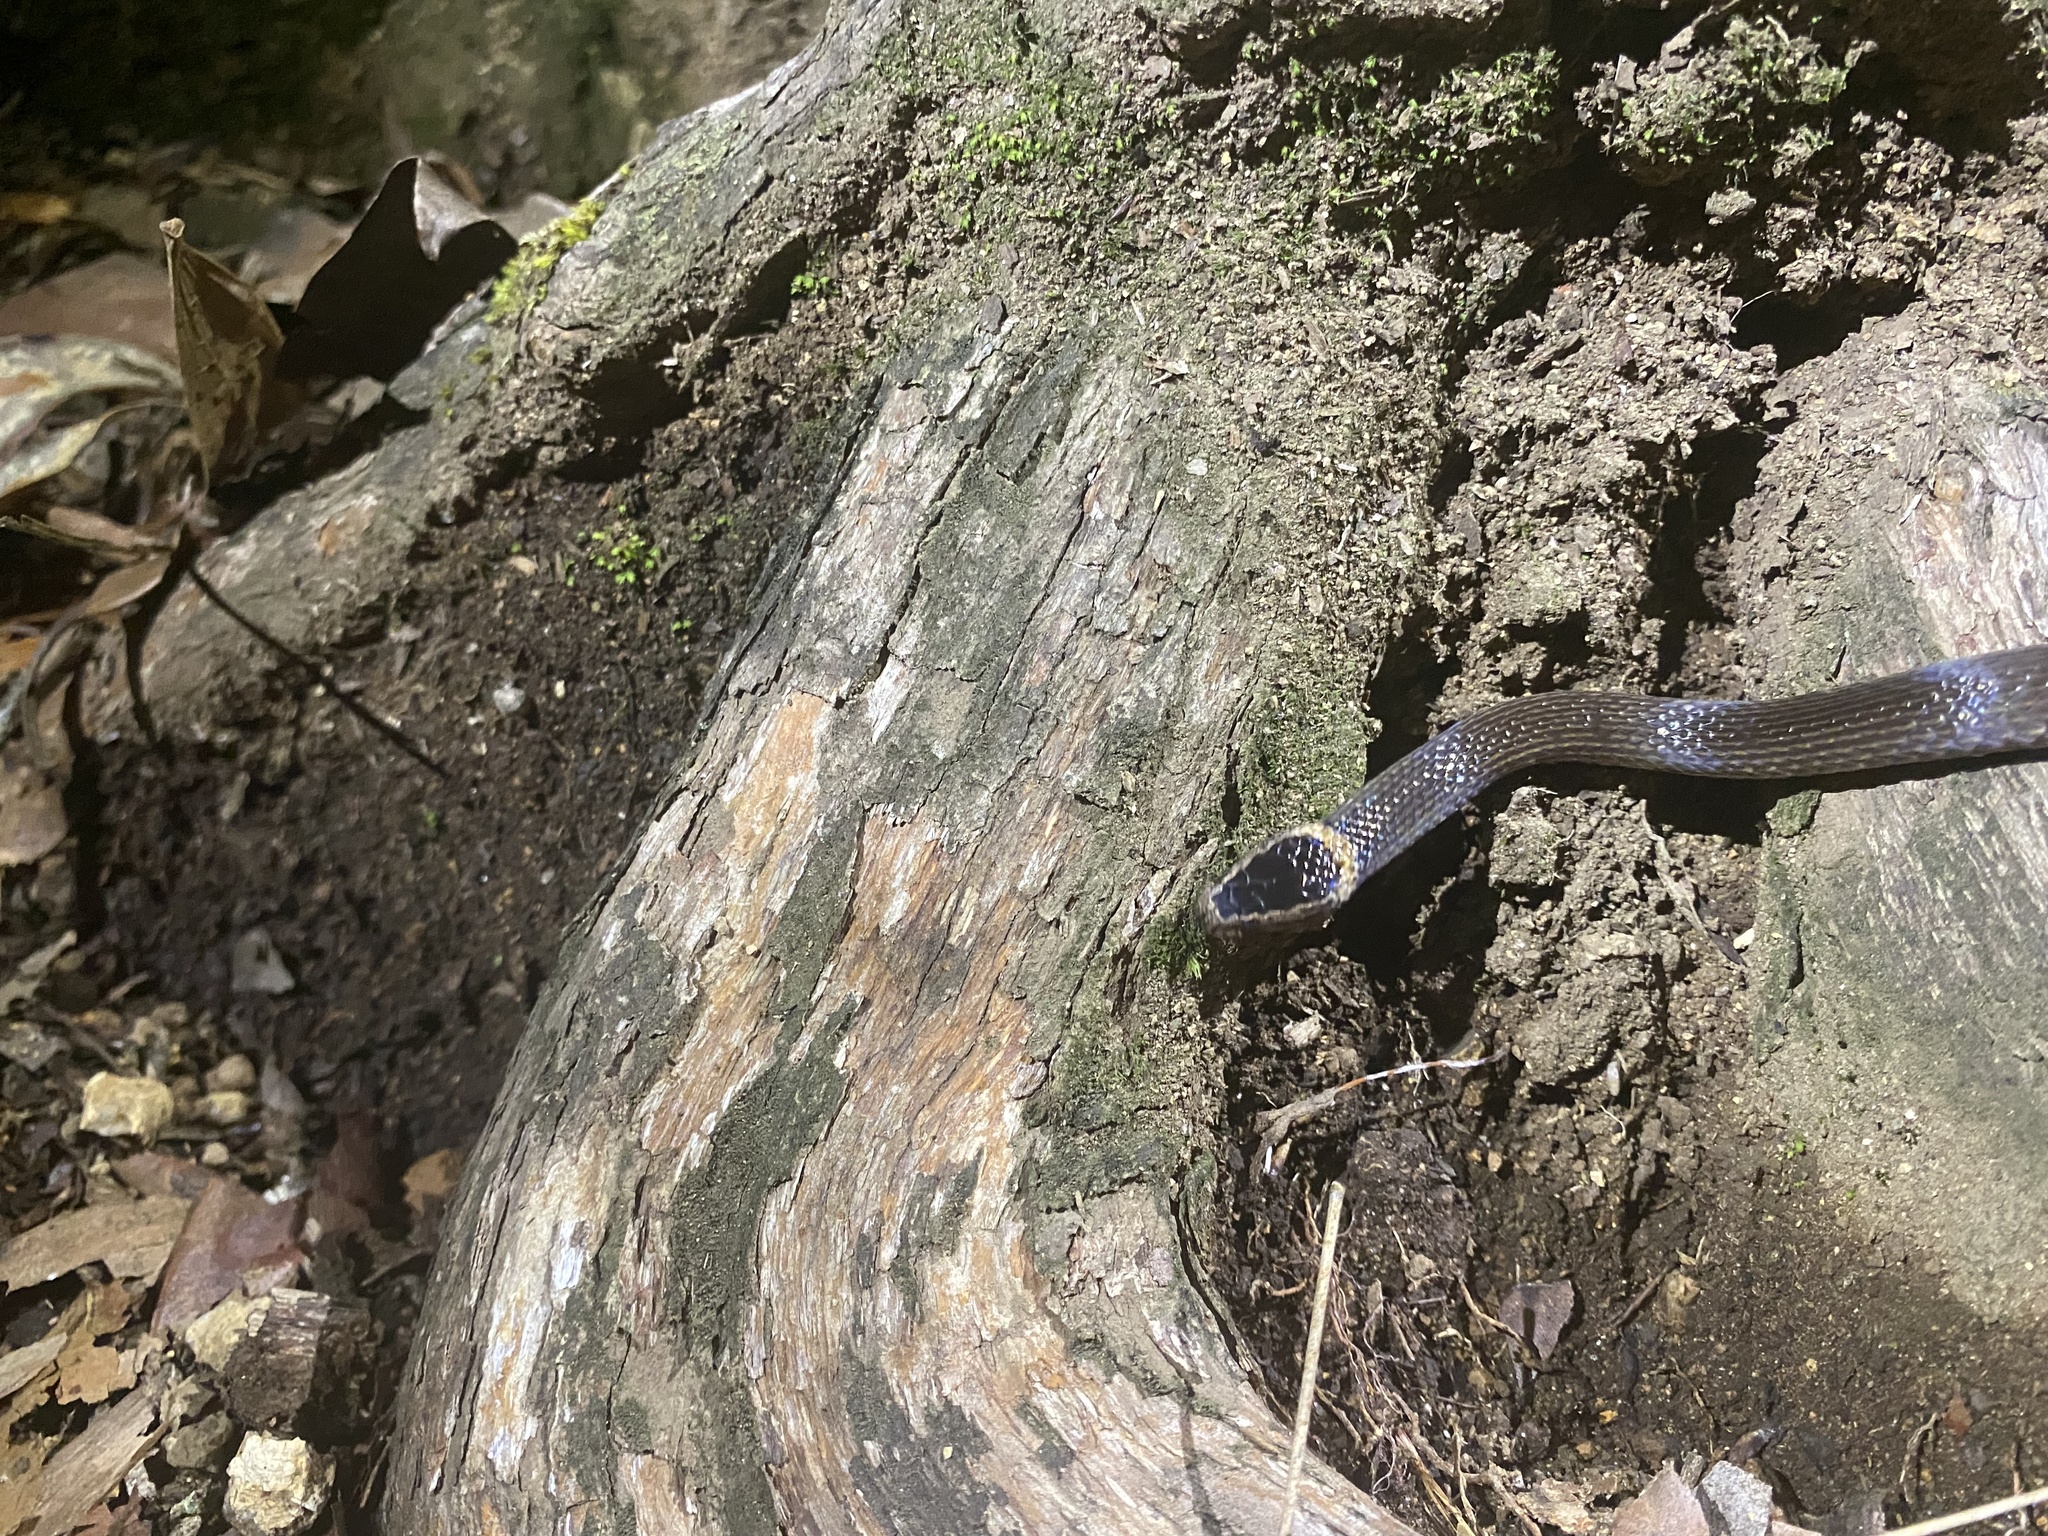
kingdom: Animalia
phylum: Chordata
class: Squamata
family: Elapidae
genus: Cacophis
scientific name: Cacophis churchilli
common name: Northern dward-crowned snake
